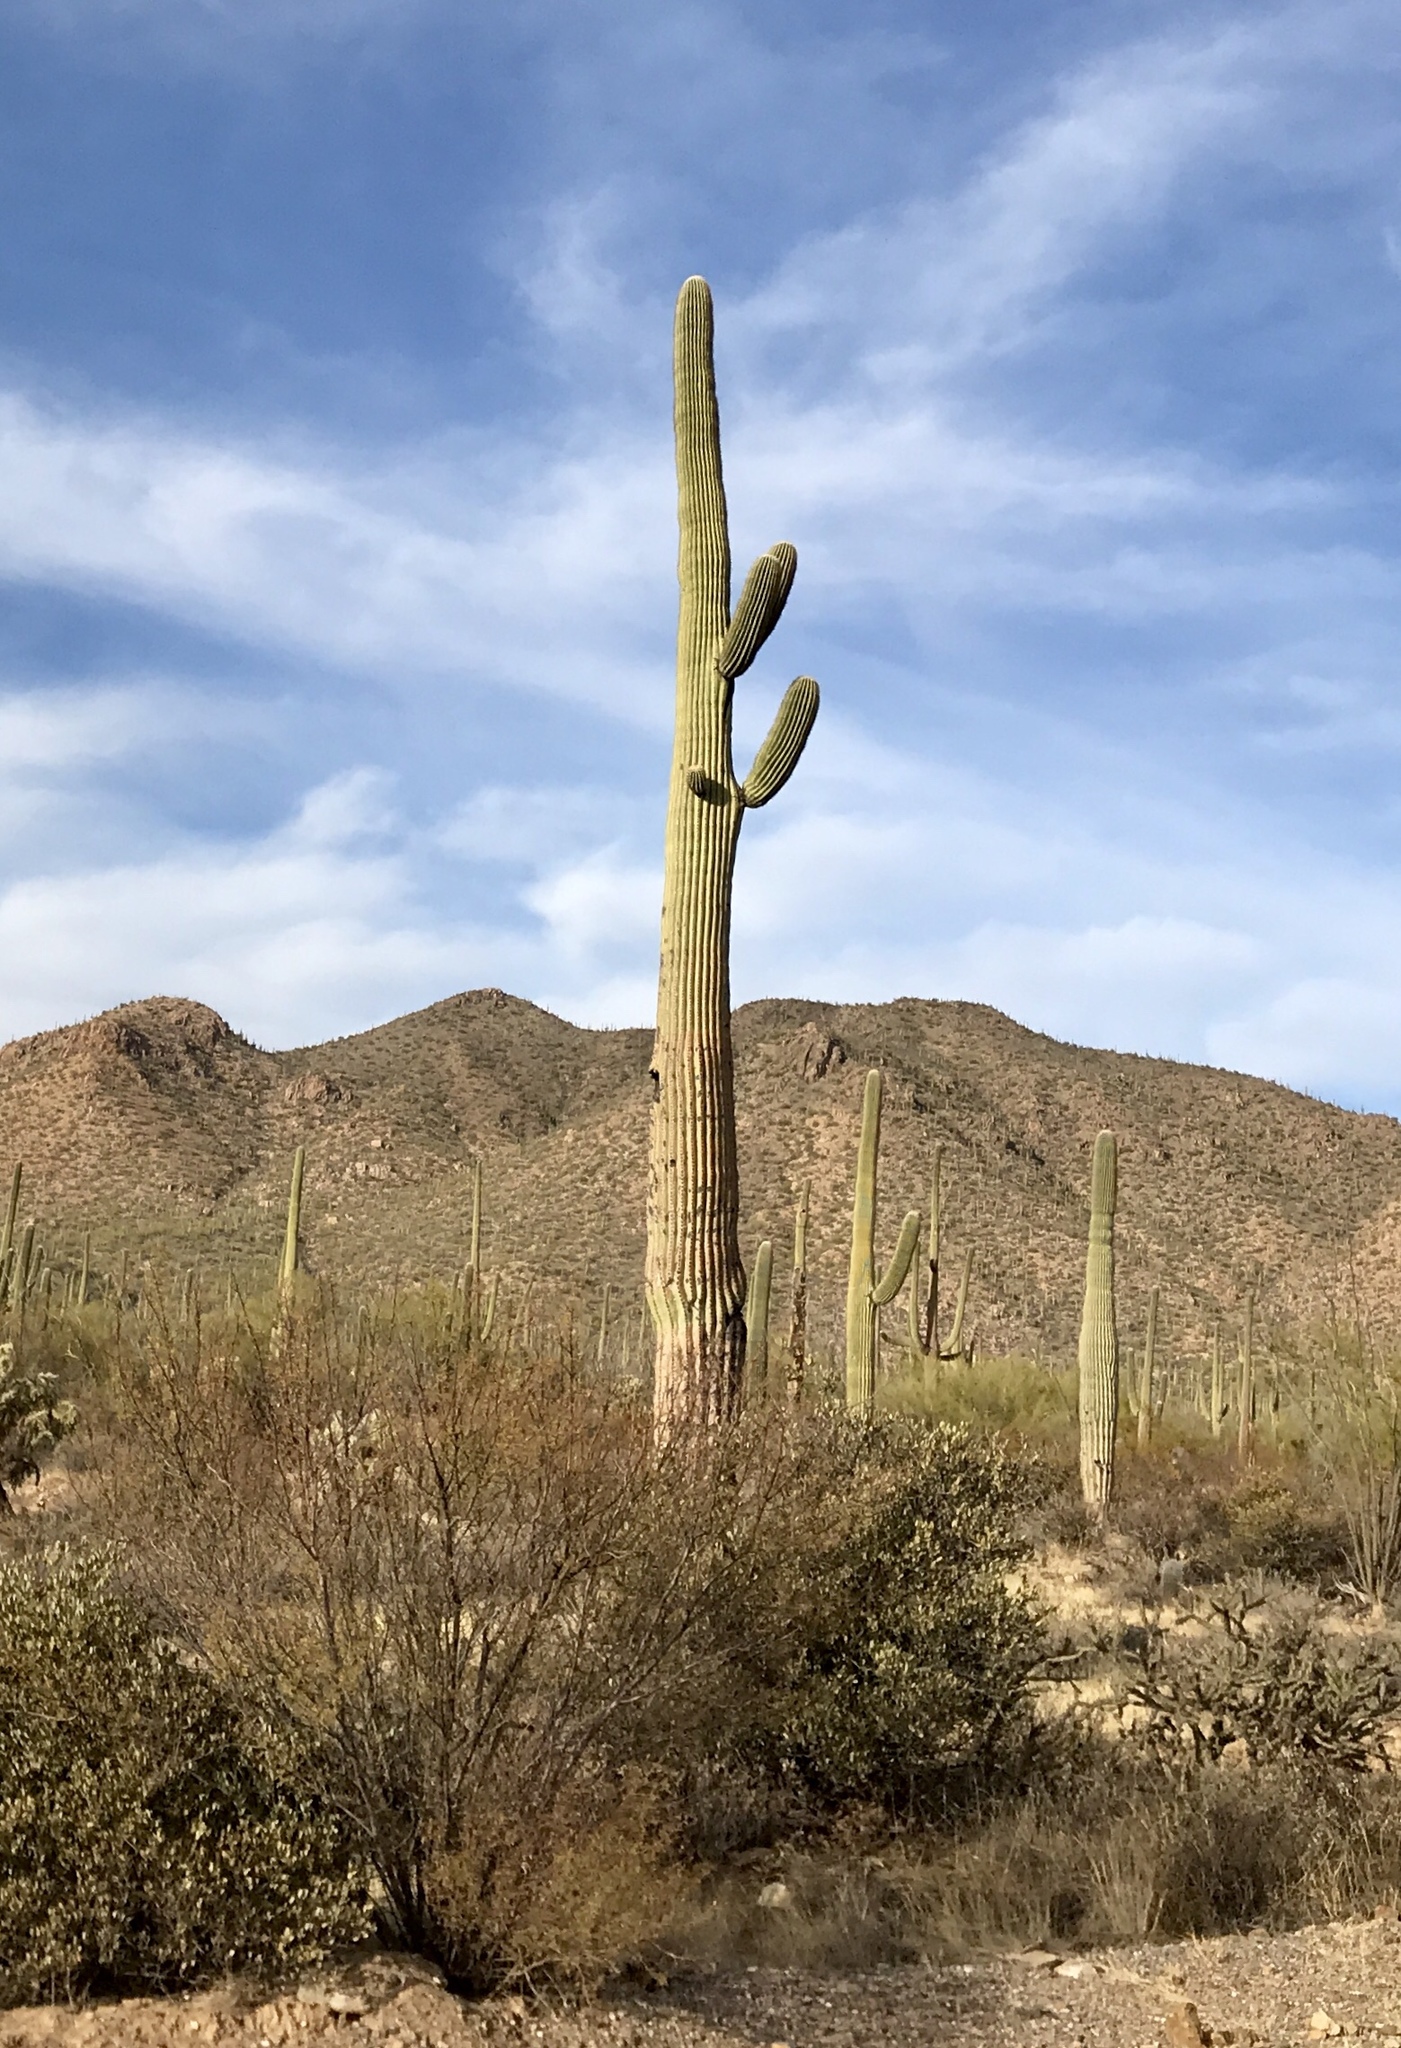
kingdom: Plantae
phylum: Tracheophyta
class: Magnoliopsida
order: Caryophyllales
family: Cactaceae
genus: Carnegiea
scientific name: Carnegiea gigantea
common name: Saguaro
